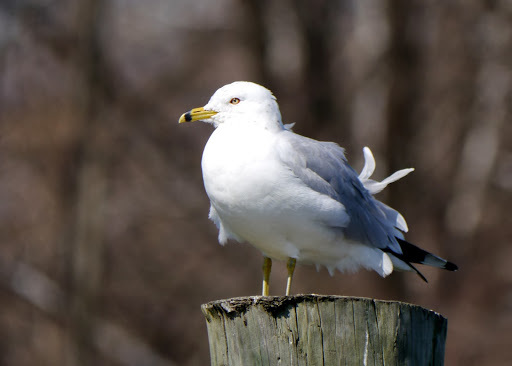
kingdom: Animalia
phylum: Chordata
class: Aves
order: Charadriiformes
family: Laridae
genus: Larus
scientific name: Larus delawarensis
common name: Ring-billed gull
